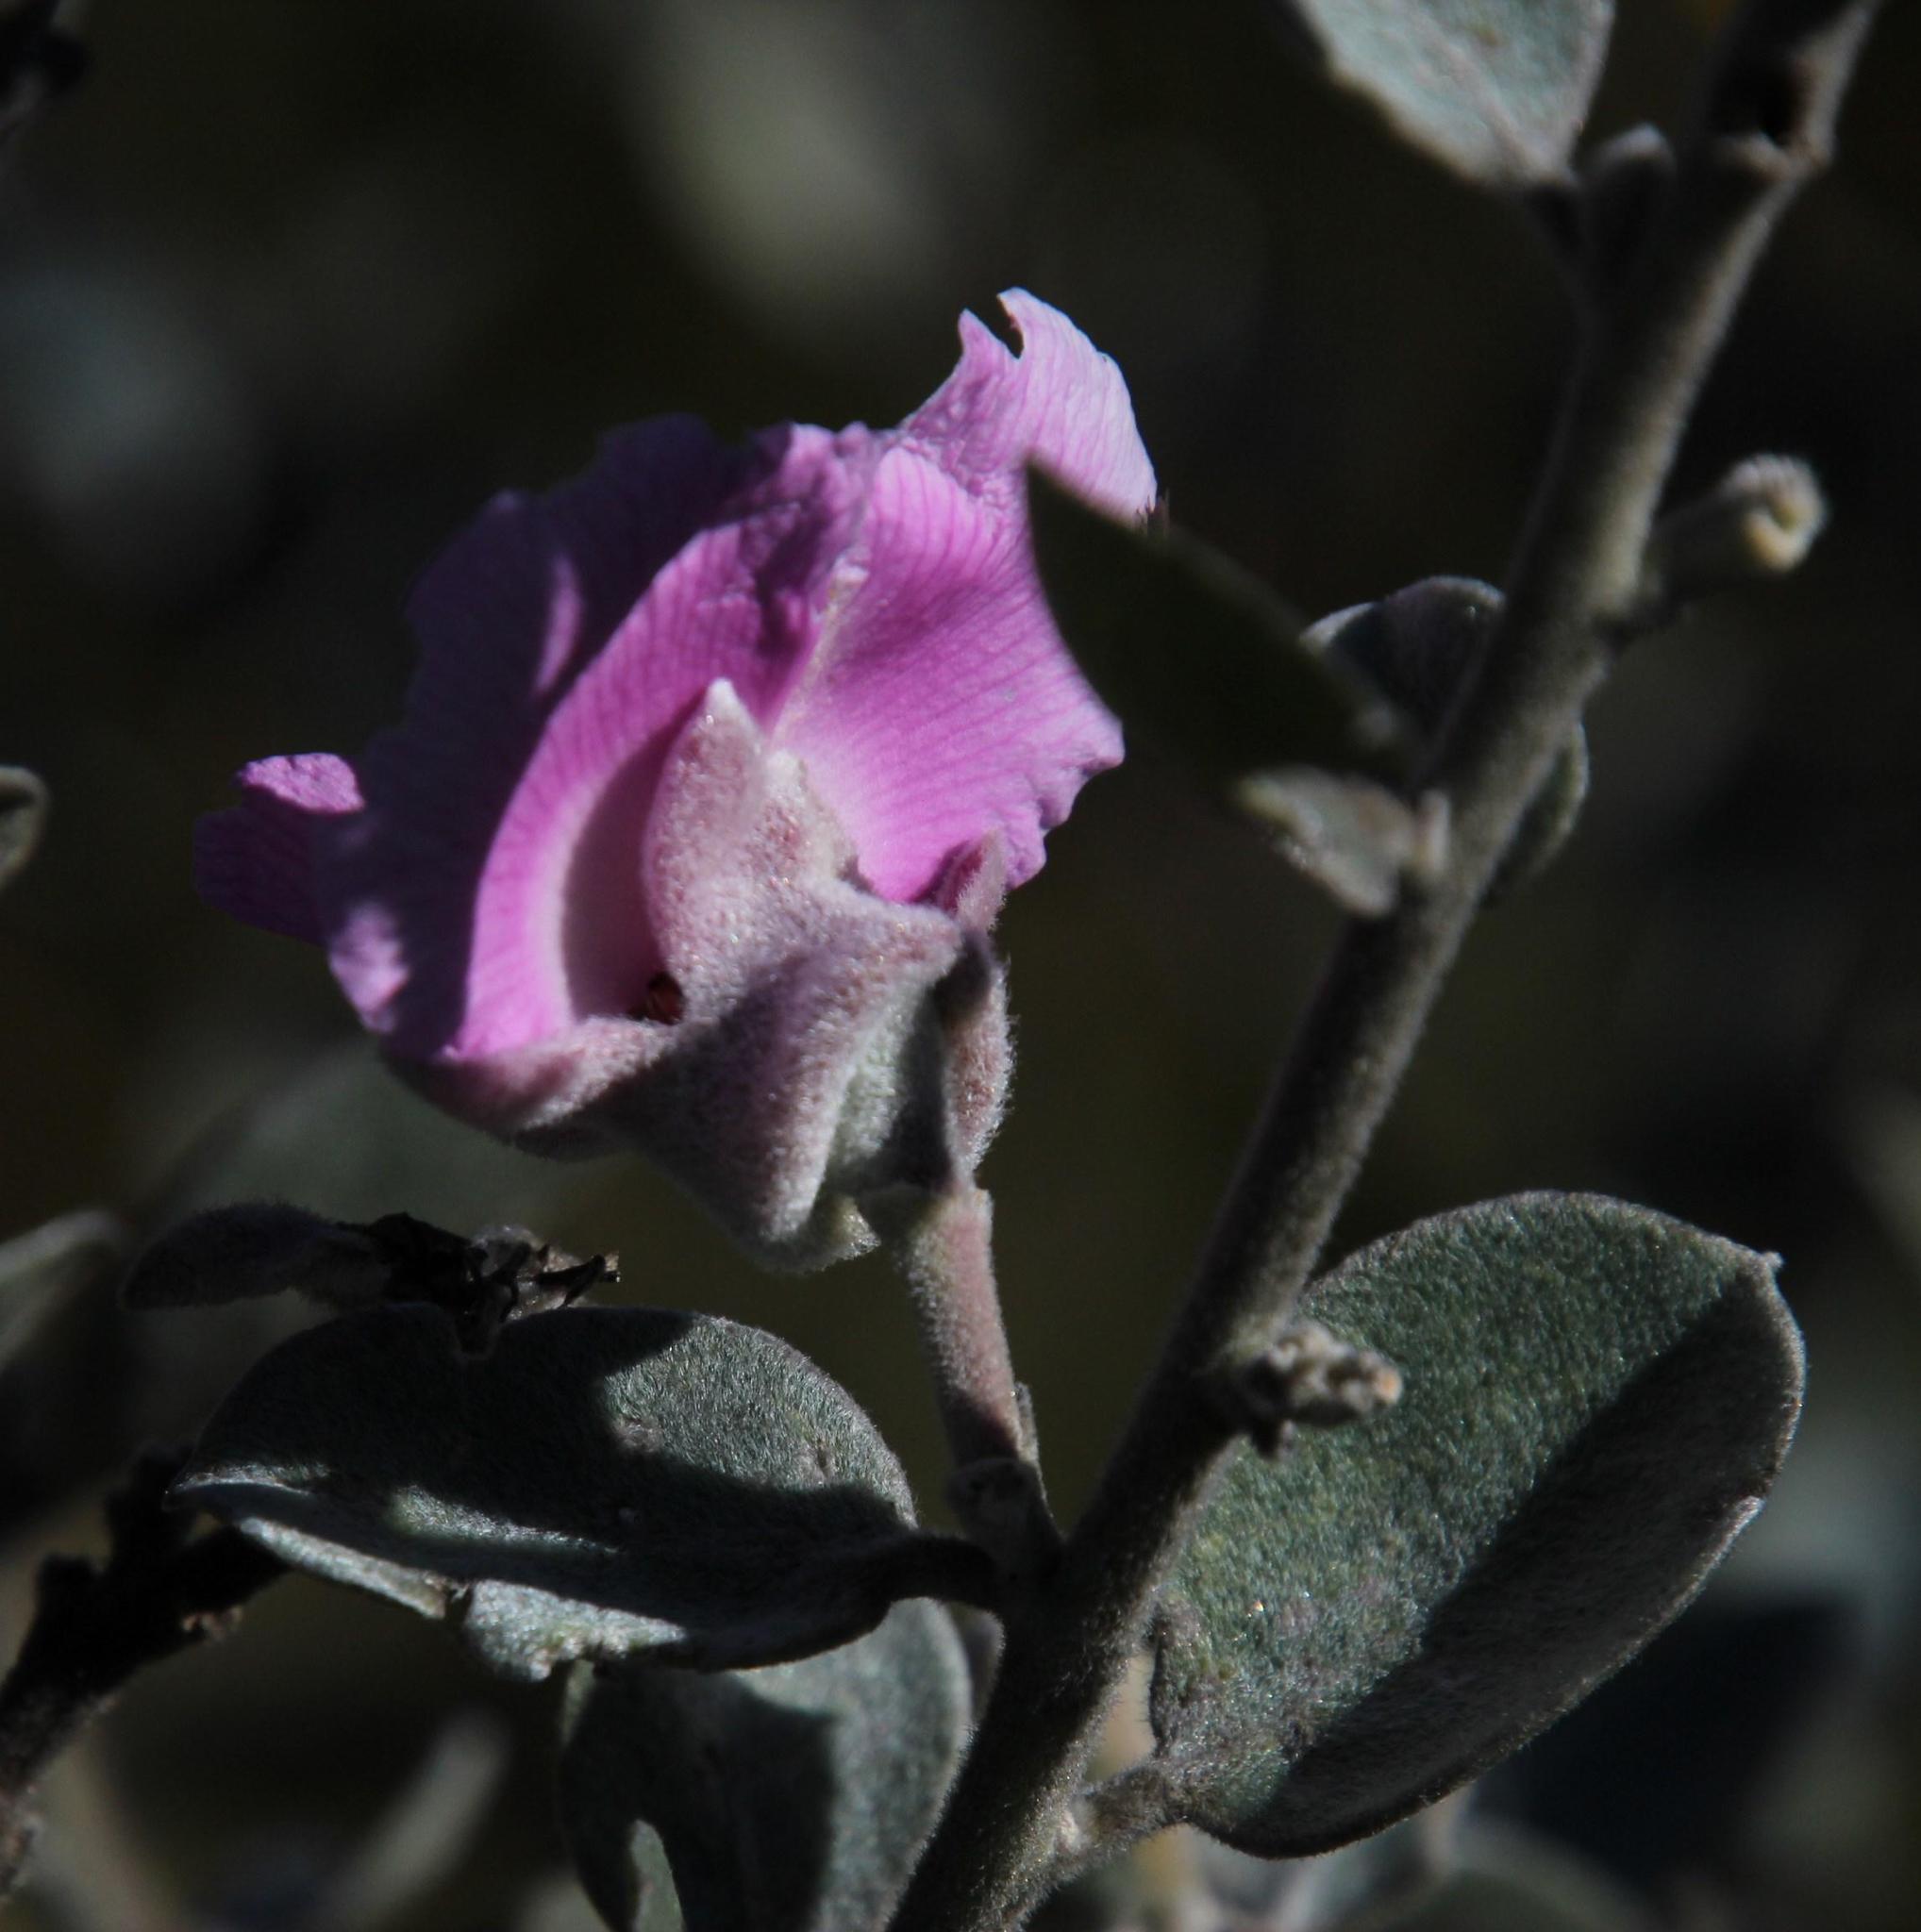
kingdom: Plantae
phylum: Tracheophyta
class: Magnoliopsida
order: Fabales
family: Fabaceae
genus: Podalyria
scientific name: Podalyria amoena
